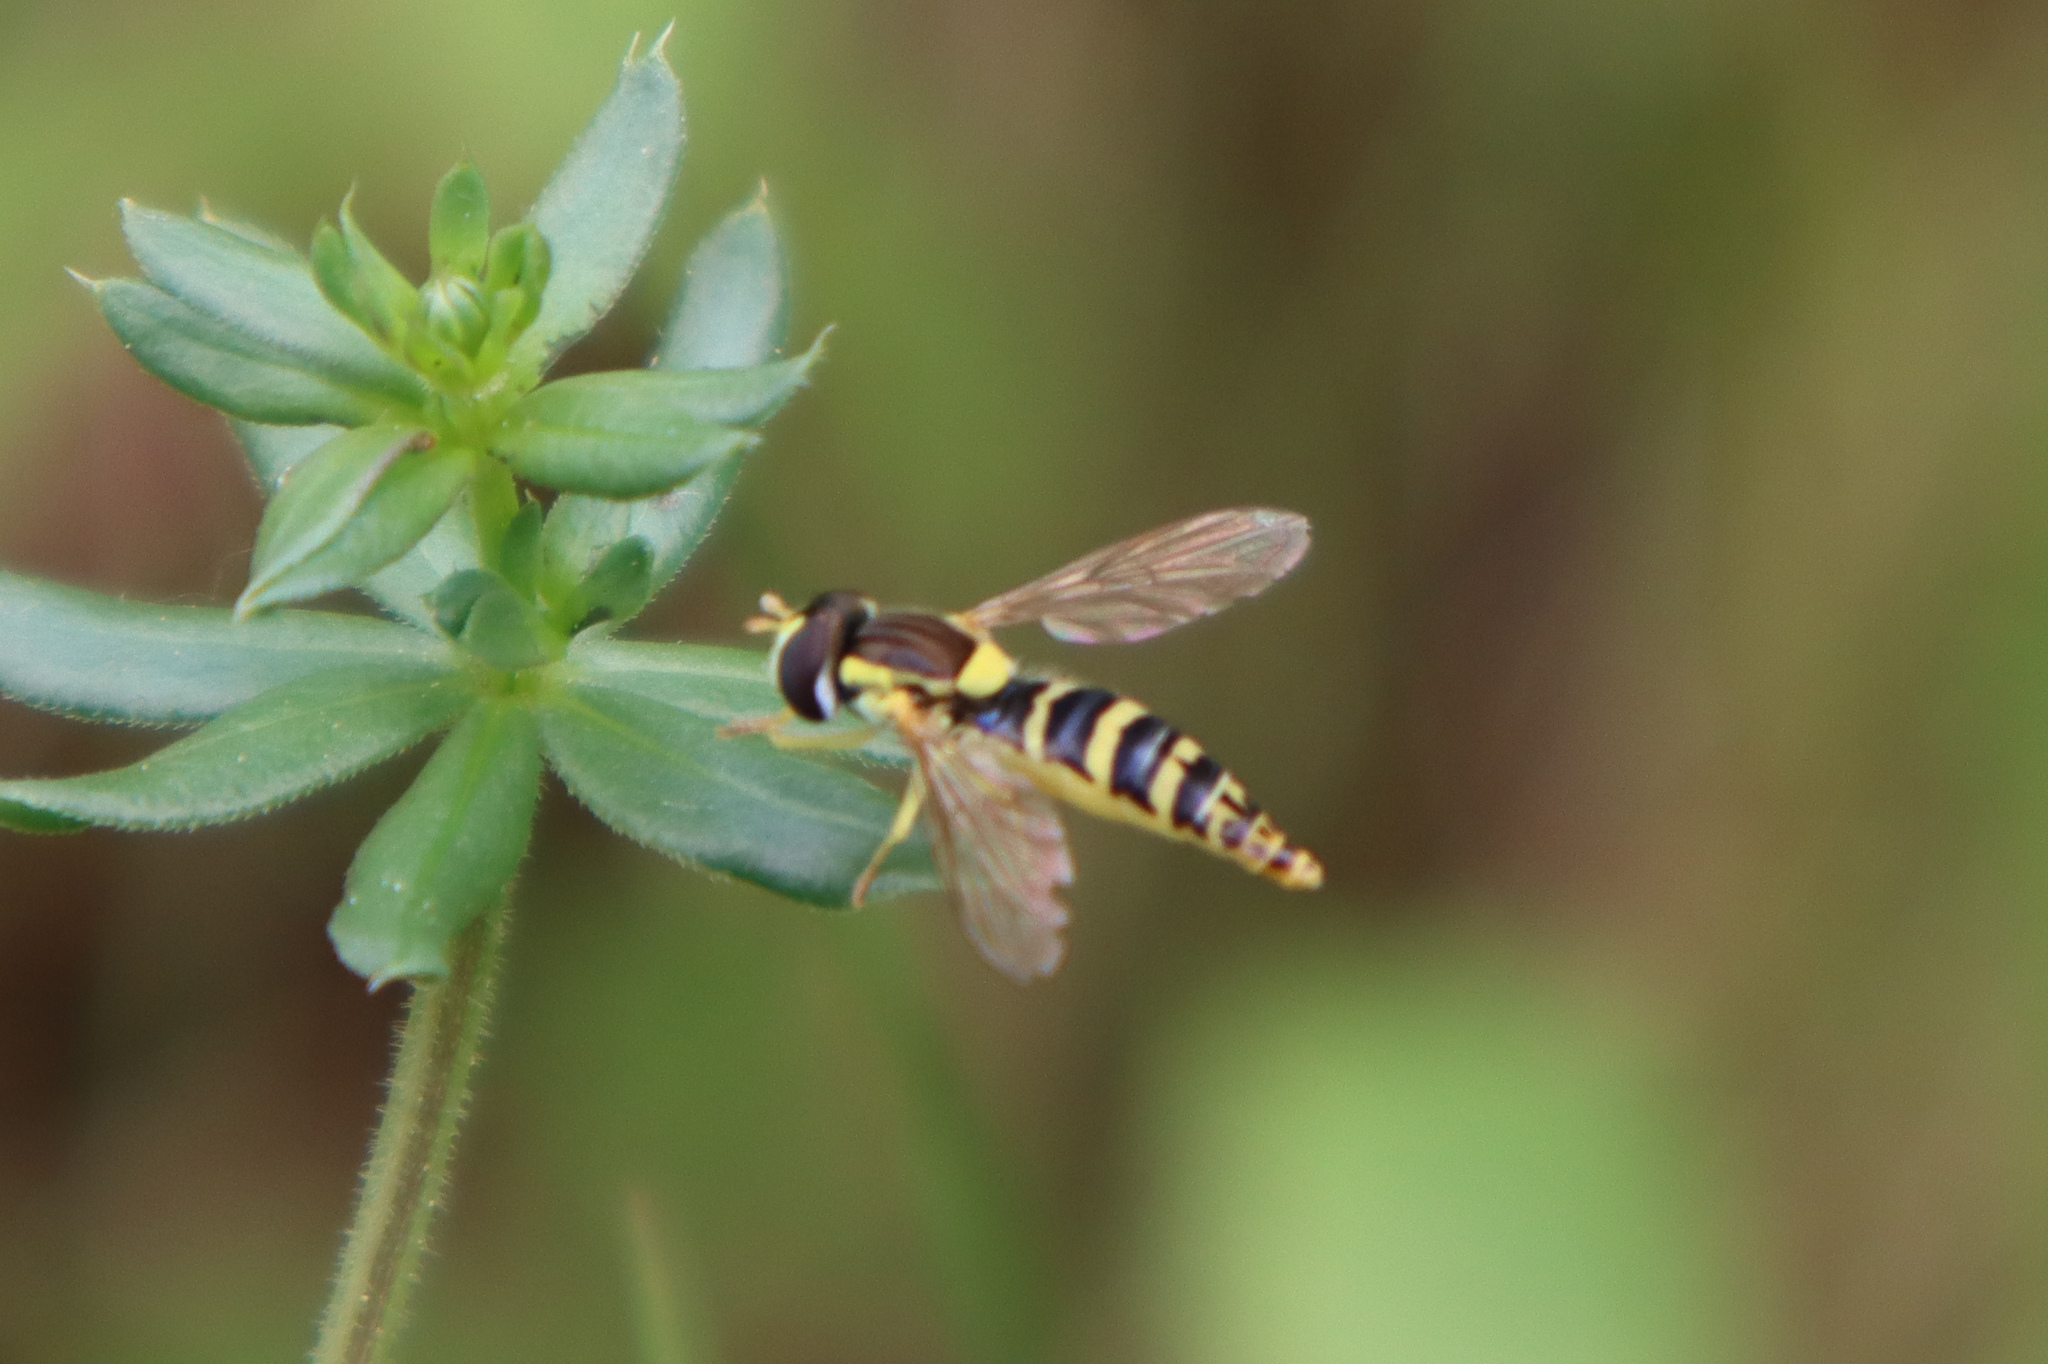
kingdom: Animalia
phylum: Arthropoda
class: Insecta
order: Diptera
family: Syrphidae
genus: Sphaerophoria
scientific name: Sphaerophoria
